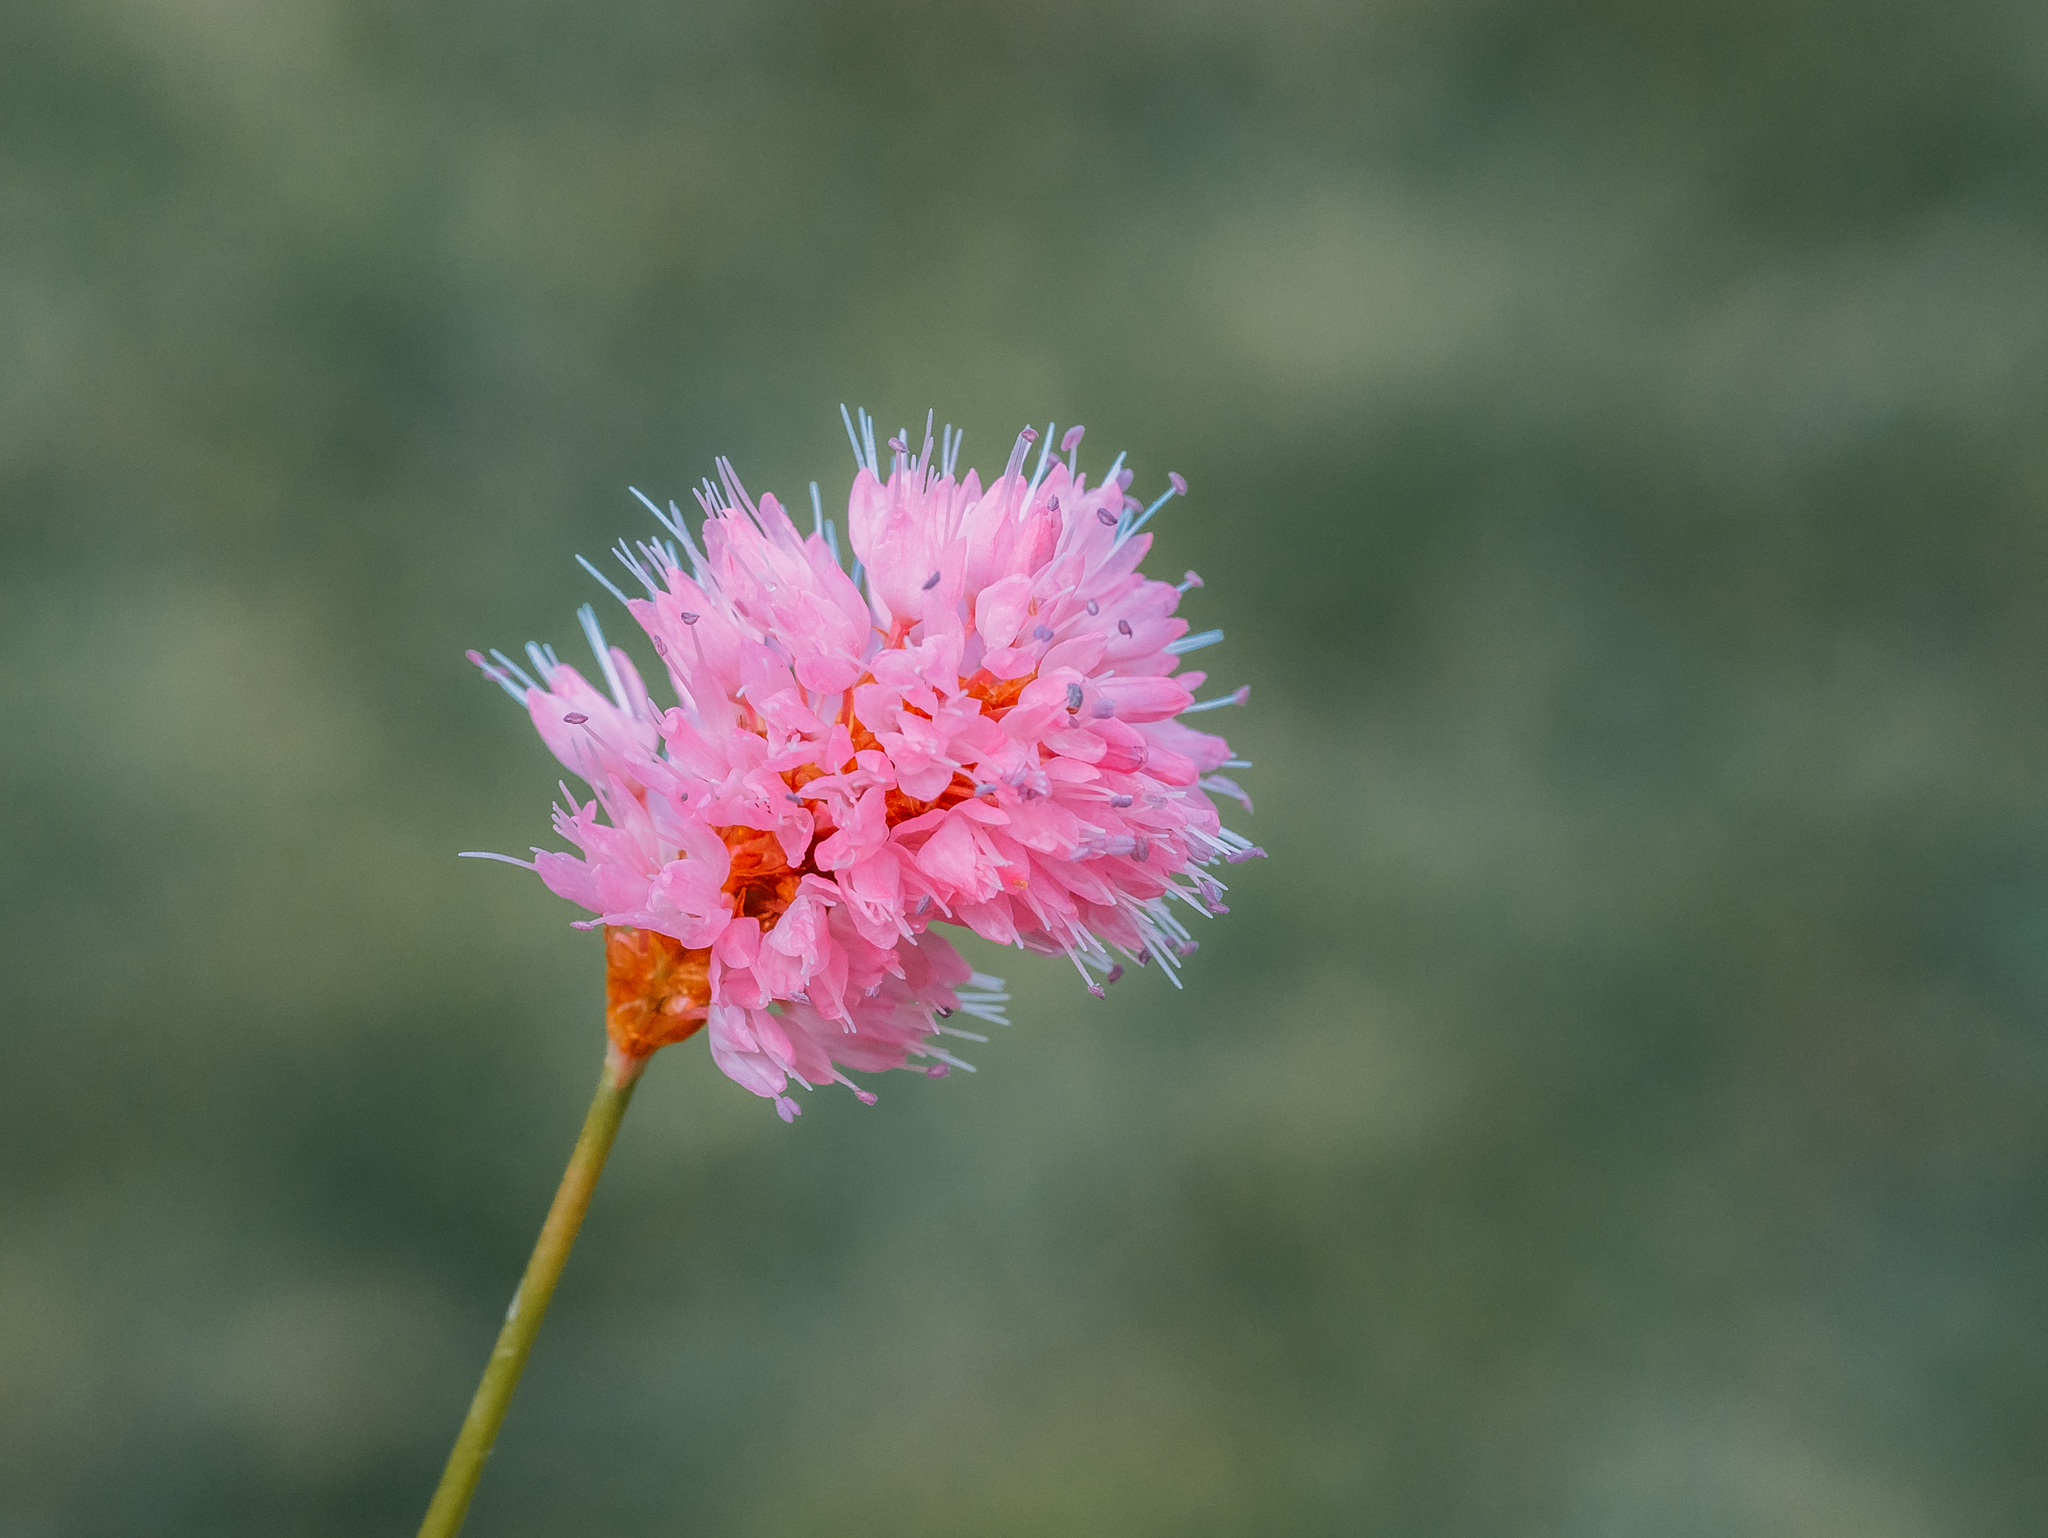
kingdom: Plantae
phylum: Tracheophyta
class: Magnoliopsida
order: Caryophyllales
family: Polygonaceae
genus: Bistorta
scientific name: Bistorta carnea
